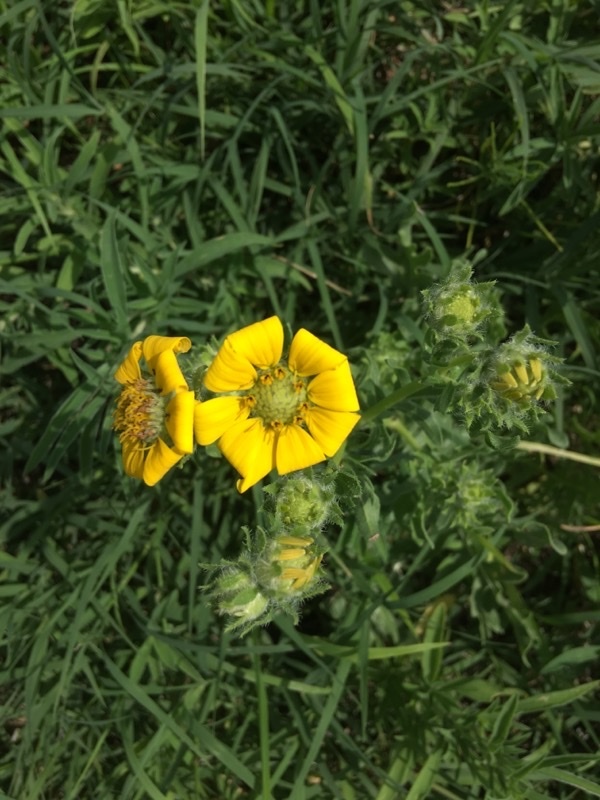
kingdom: Plantae
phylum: Tracheophyta
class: Magnoliopsida
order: Asterales
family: Asteraceae
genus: Engelmannia
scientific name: Engelmannia peristenia
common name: Engelmann's daisy
